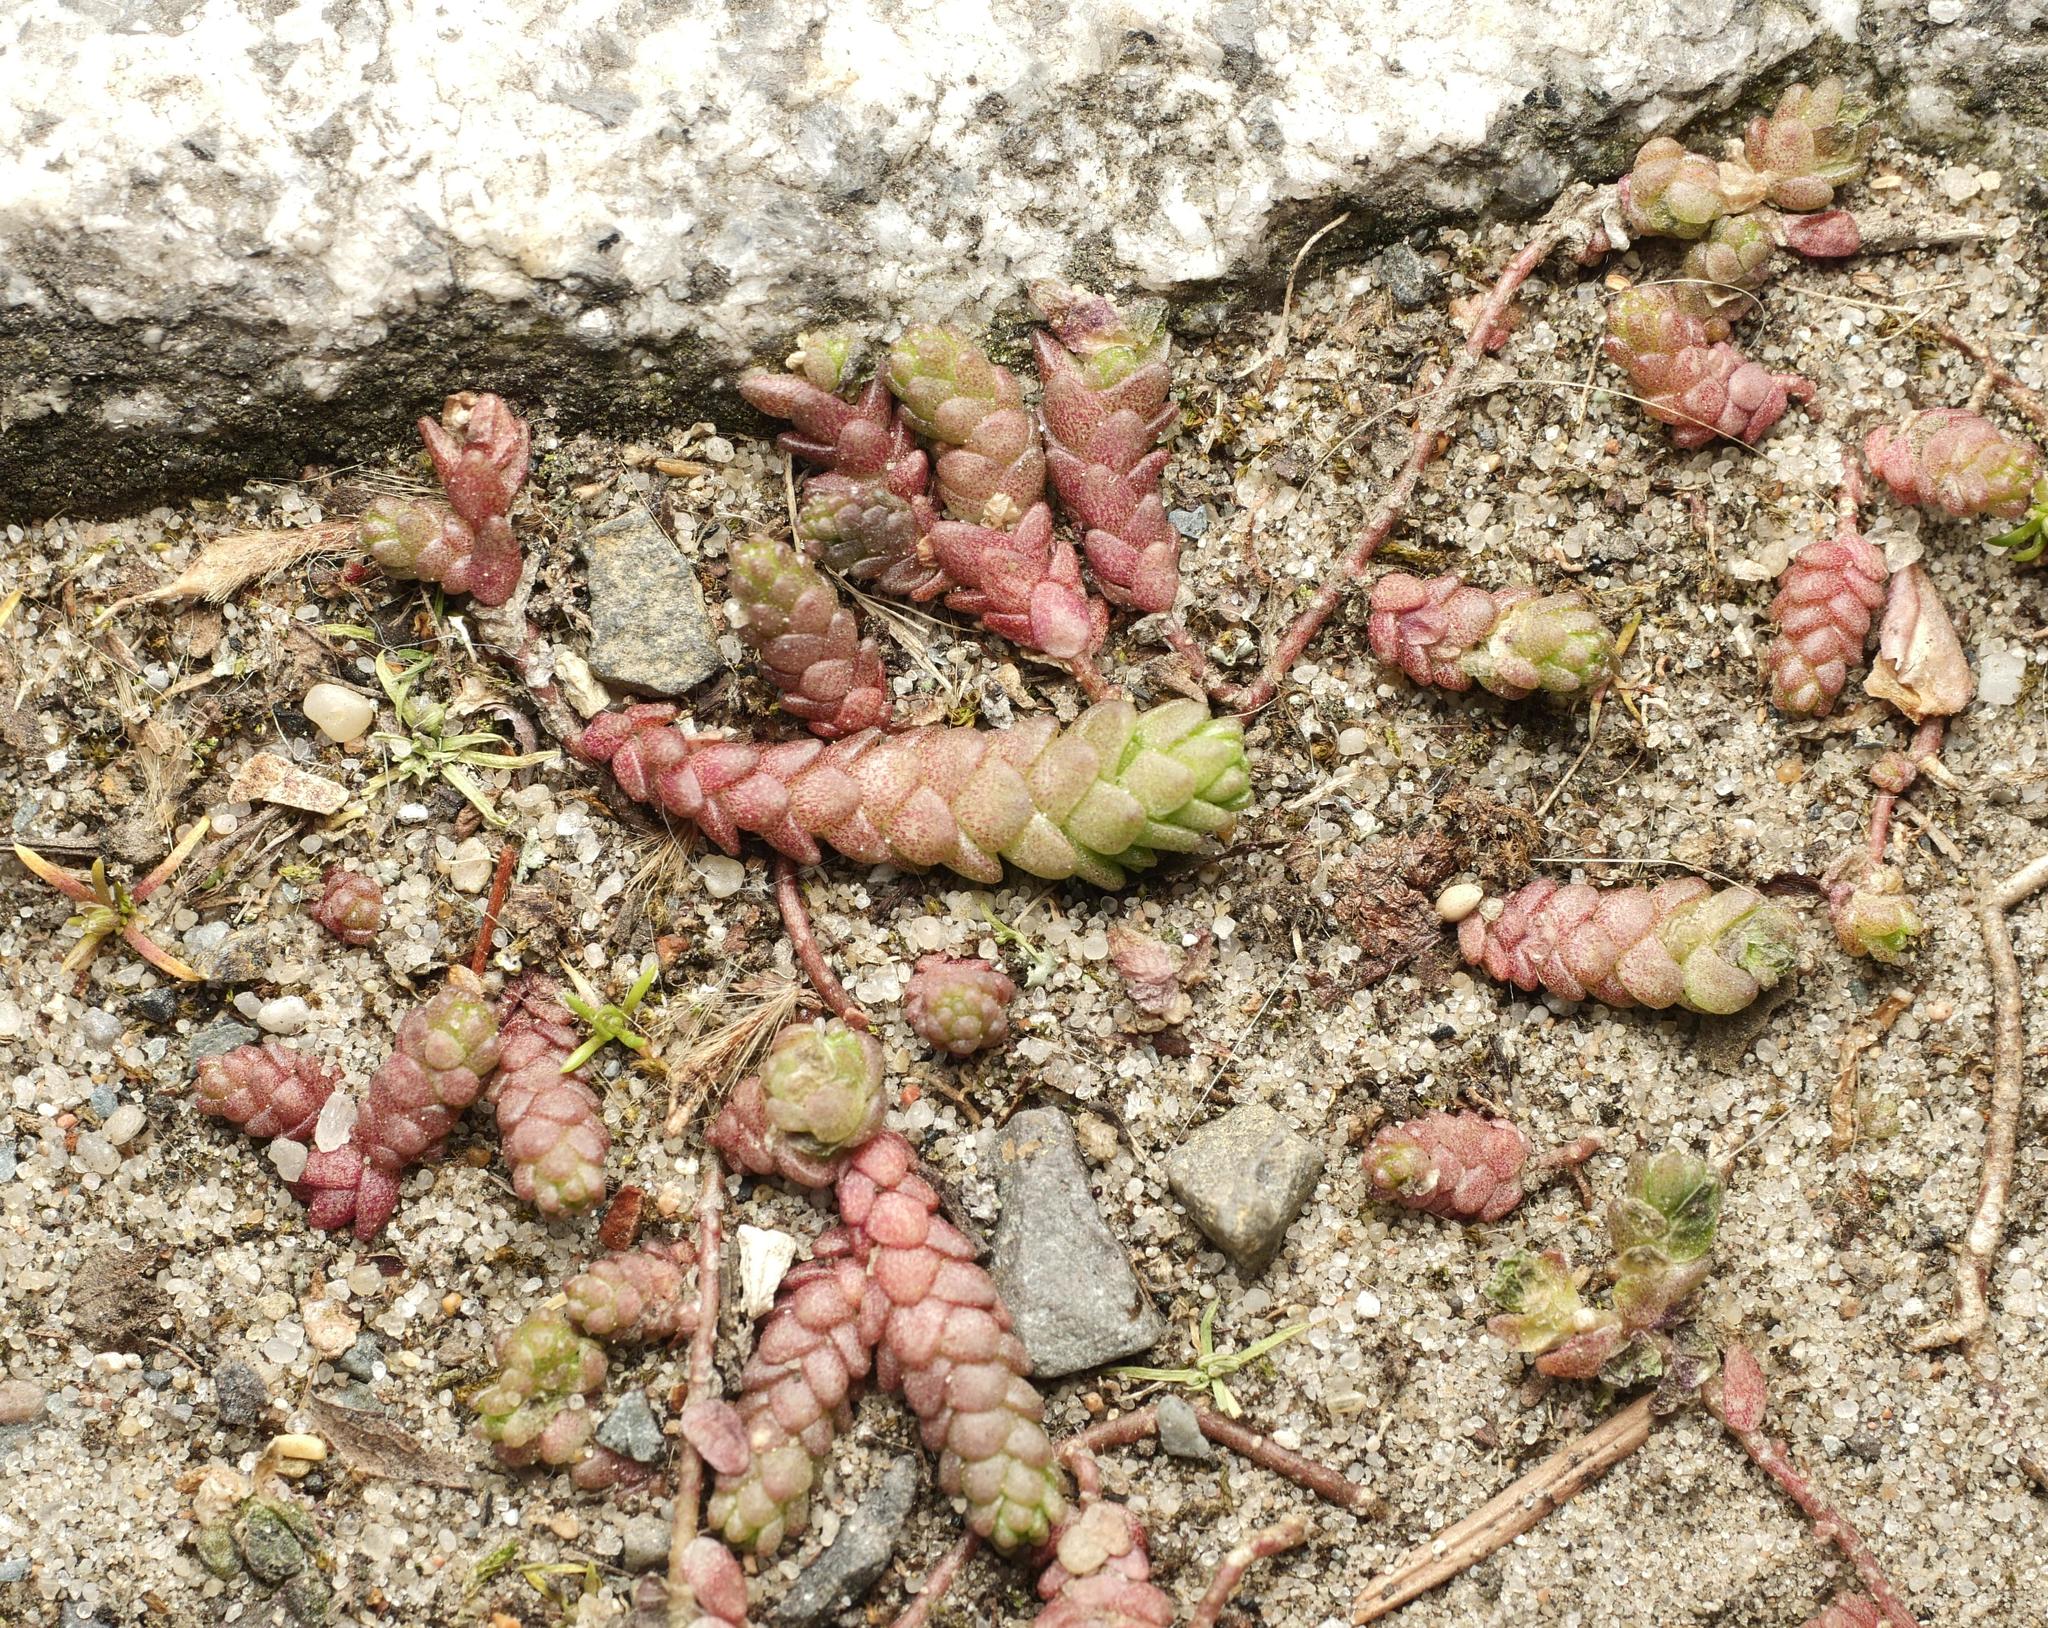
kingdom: Plantae
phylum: Tracheophyta
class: Magnoliopsida
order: Saxifragales
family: Crassulaceae
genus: Sedum
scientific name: Sedum acre
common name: Biting stonecrop
